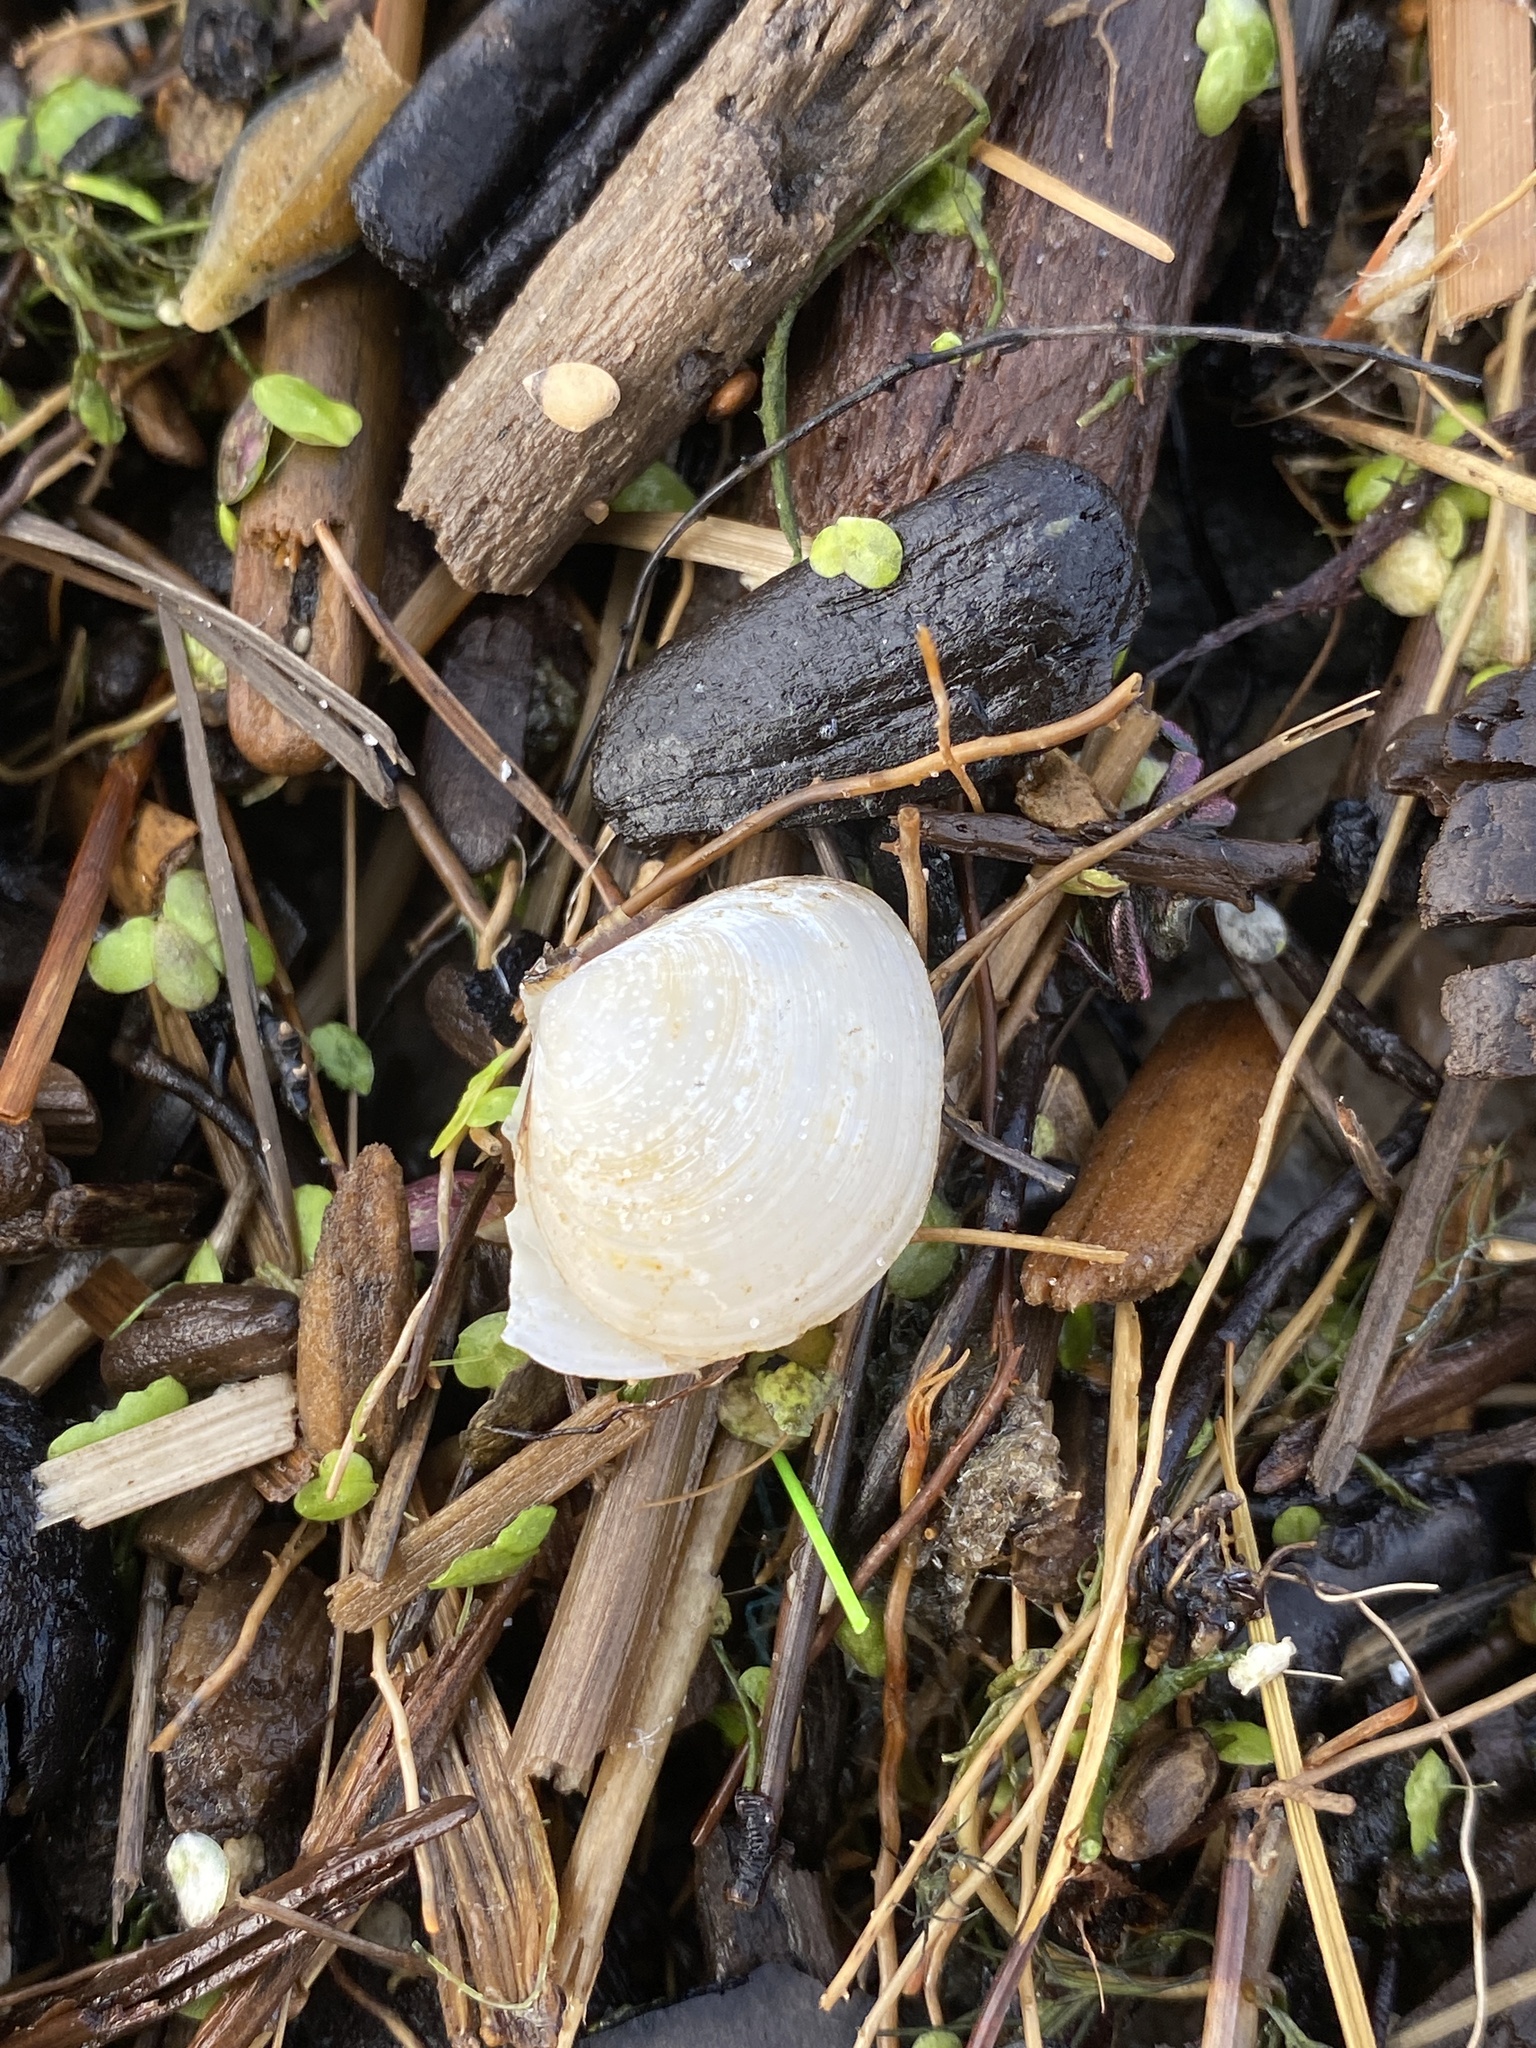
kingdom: Animalia
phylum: Mollusca
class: Bivalvia
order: Cardiida
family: Tellinidae
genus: Macoma
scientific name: Macoma balthica
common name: Baltic tellin
